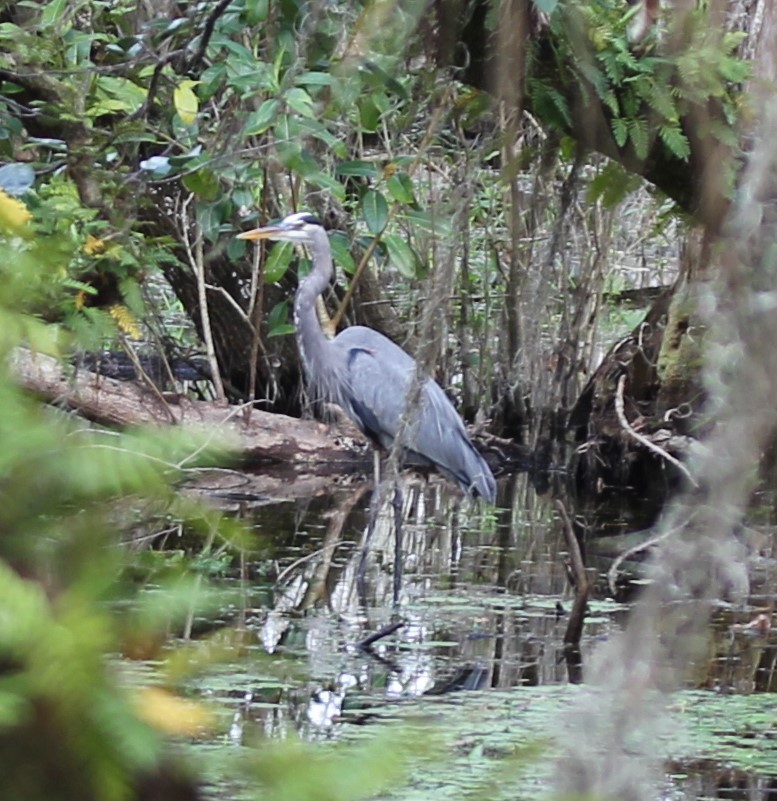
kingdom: Animalia
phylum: Chordata
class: Aves
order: Pelecaniformes
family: Ardeidae
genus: Ardea
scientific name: Ardea herodias
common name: Great blue heron
